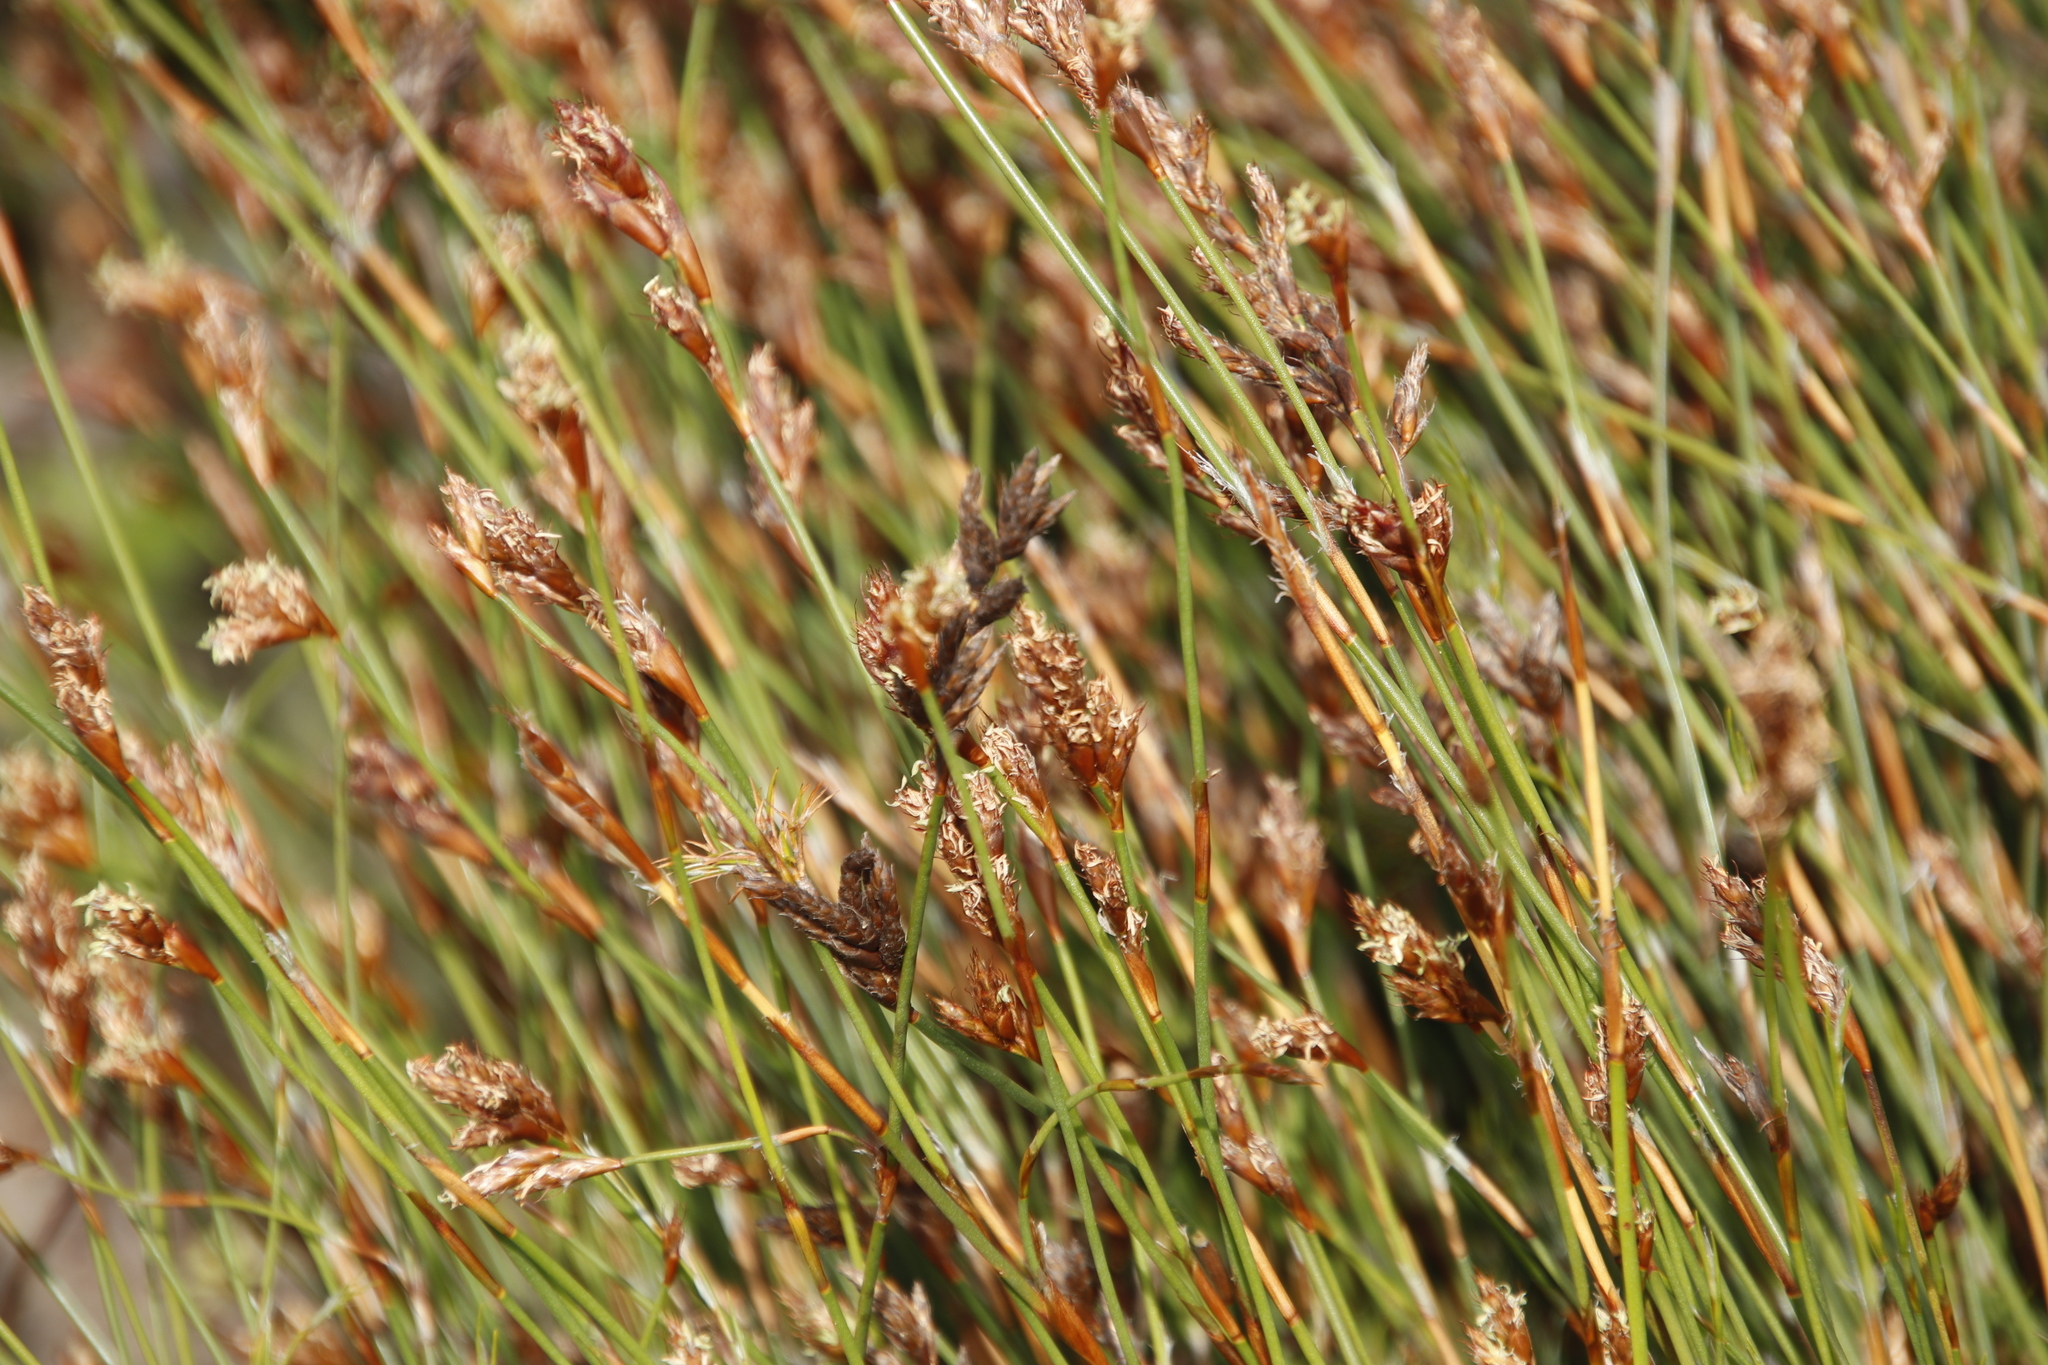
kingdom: Plantae
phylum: Tracheophyta
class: Liliopsida
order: Poales
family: Restionaceae
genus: Restio
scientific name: Restio capensis
